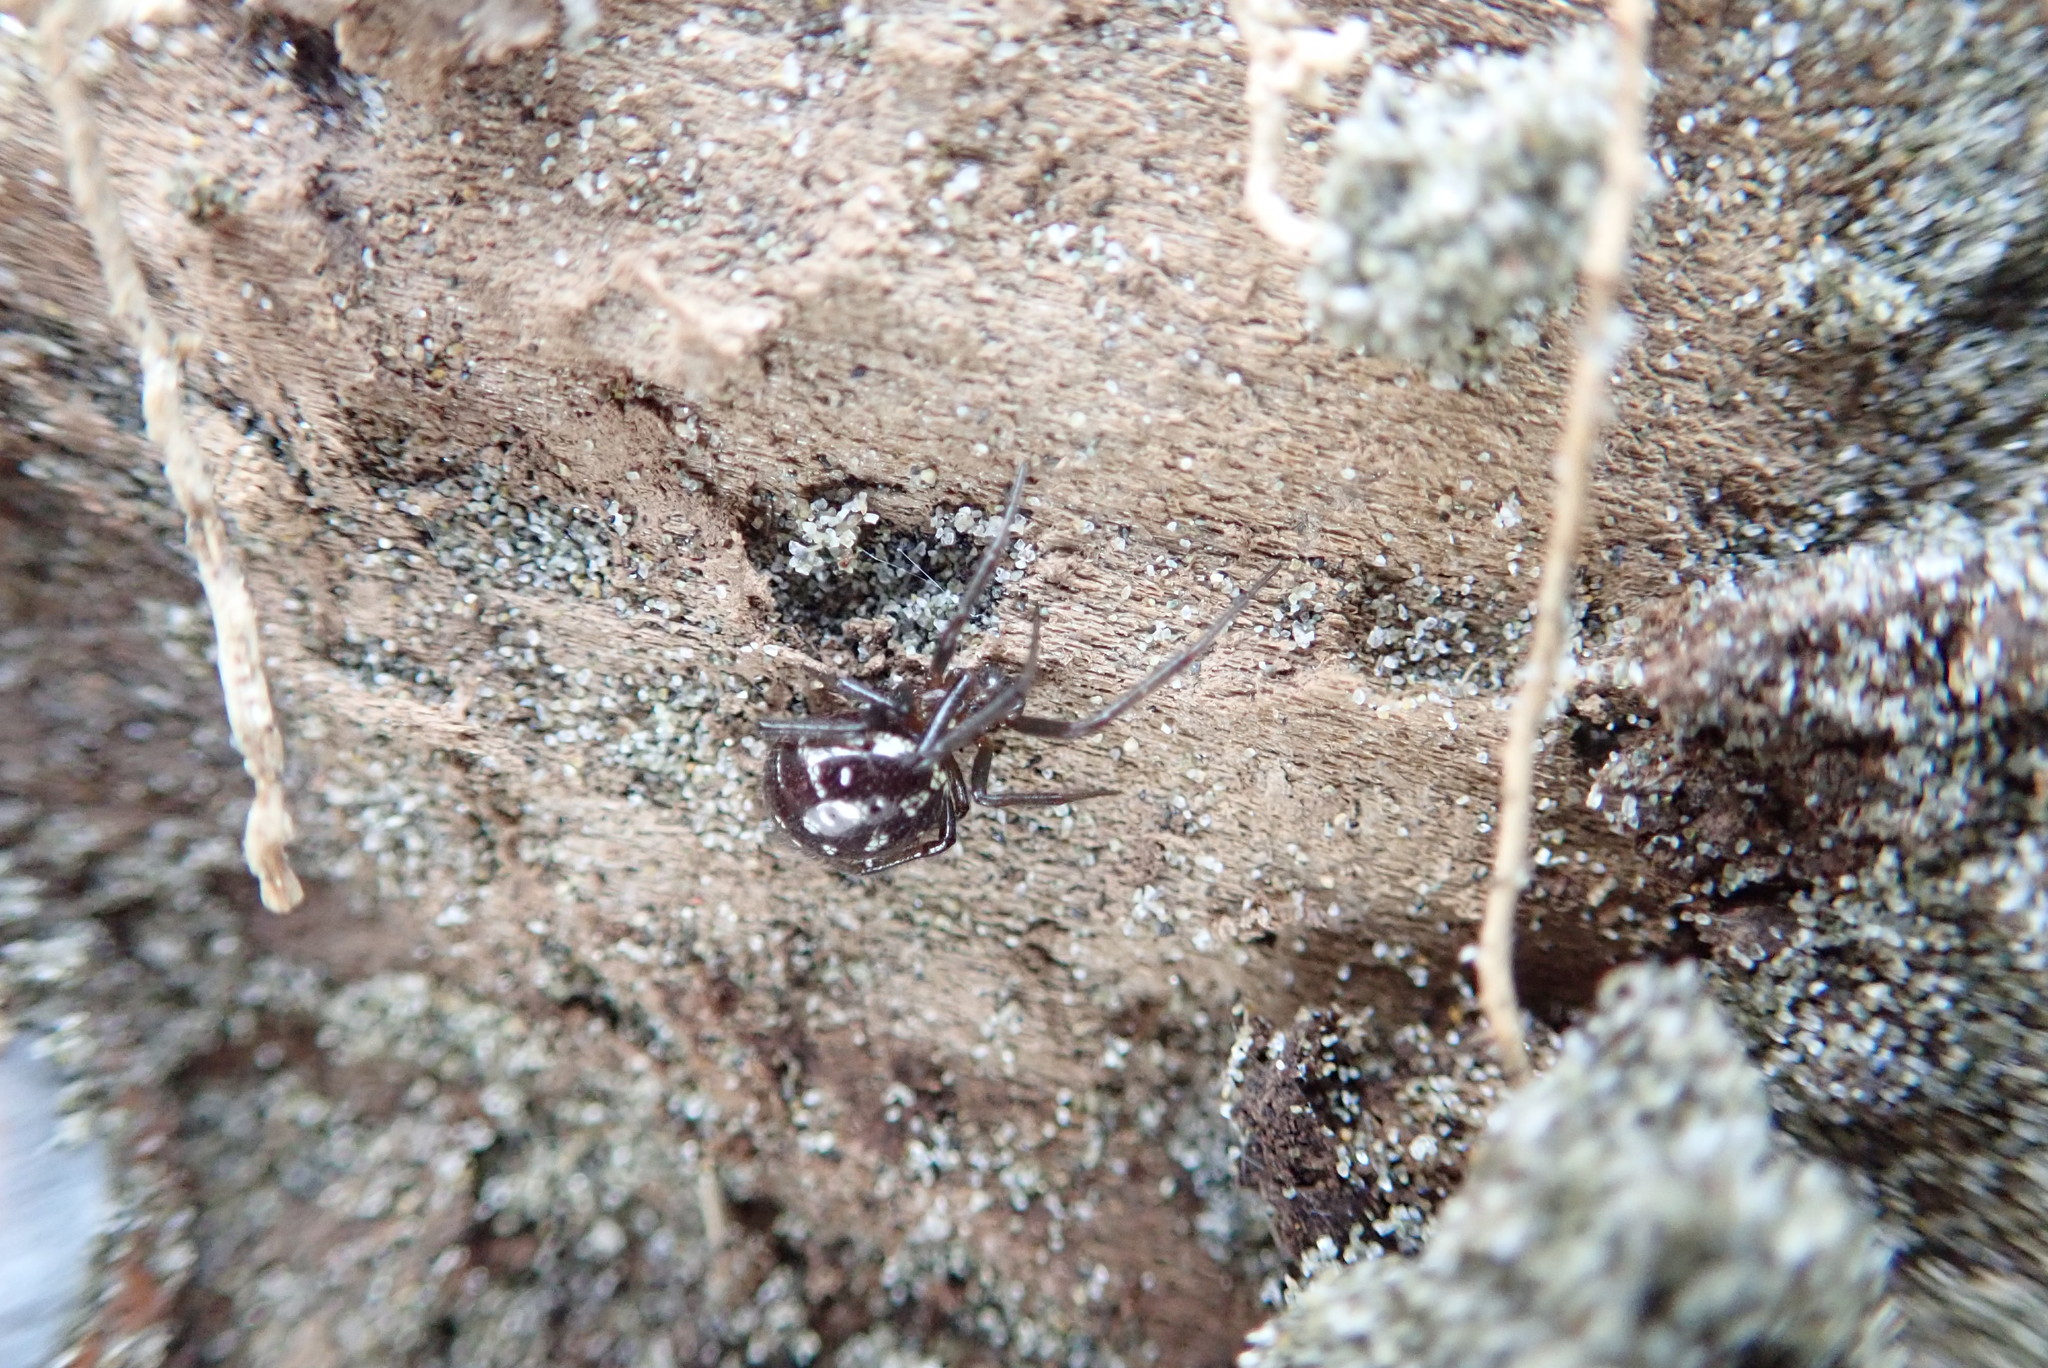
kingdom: Animalia
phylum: Arthropoda
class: Arachnida
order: Araneae
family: Theridiidae
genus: Steatoda
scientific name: Steatoda capensis
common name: Cobweb weaver
